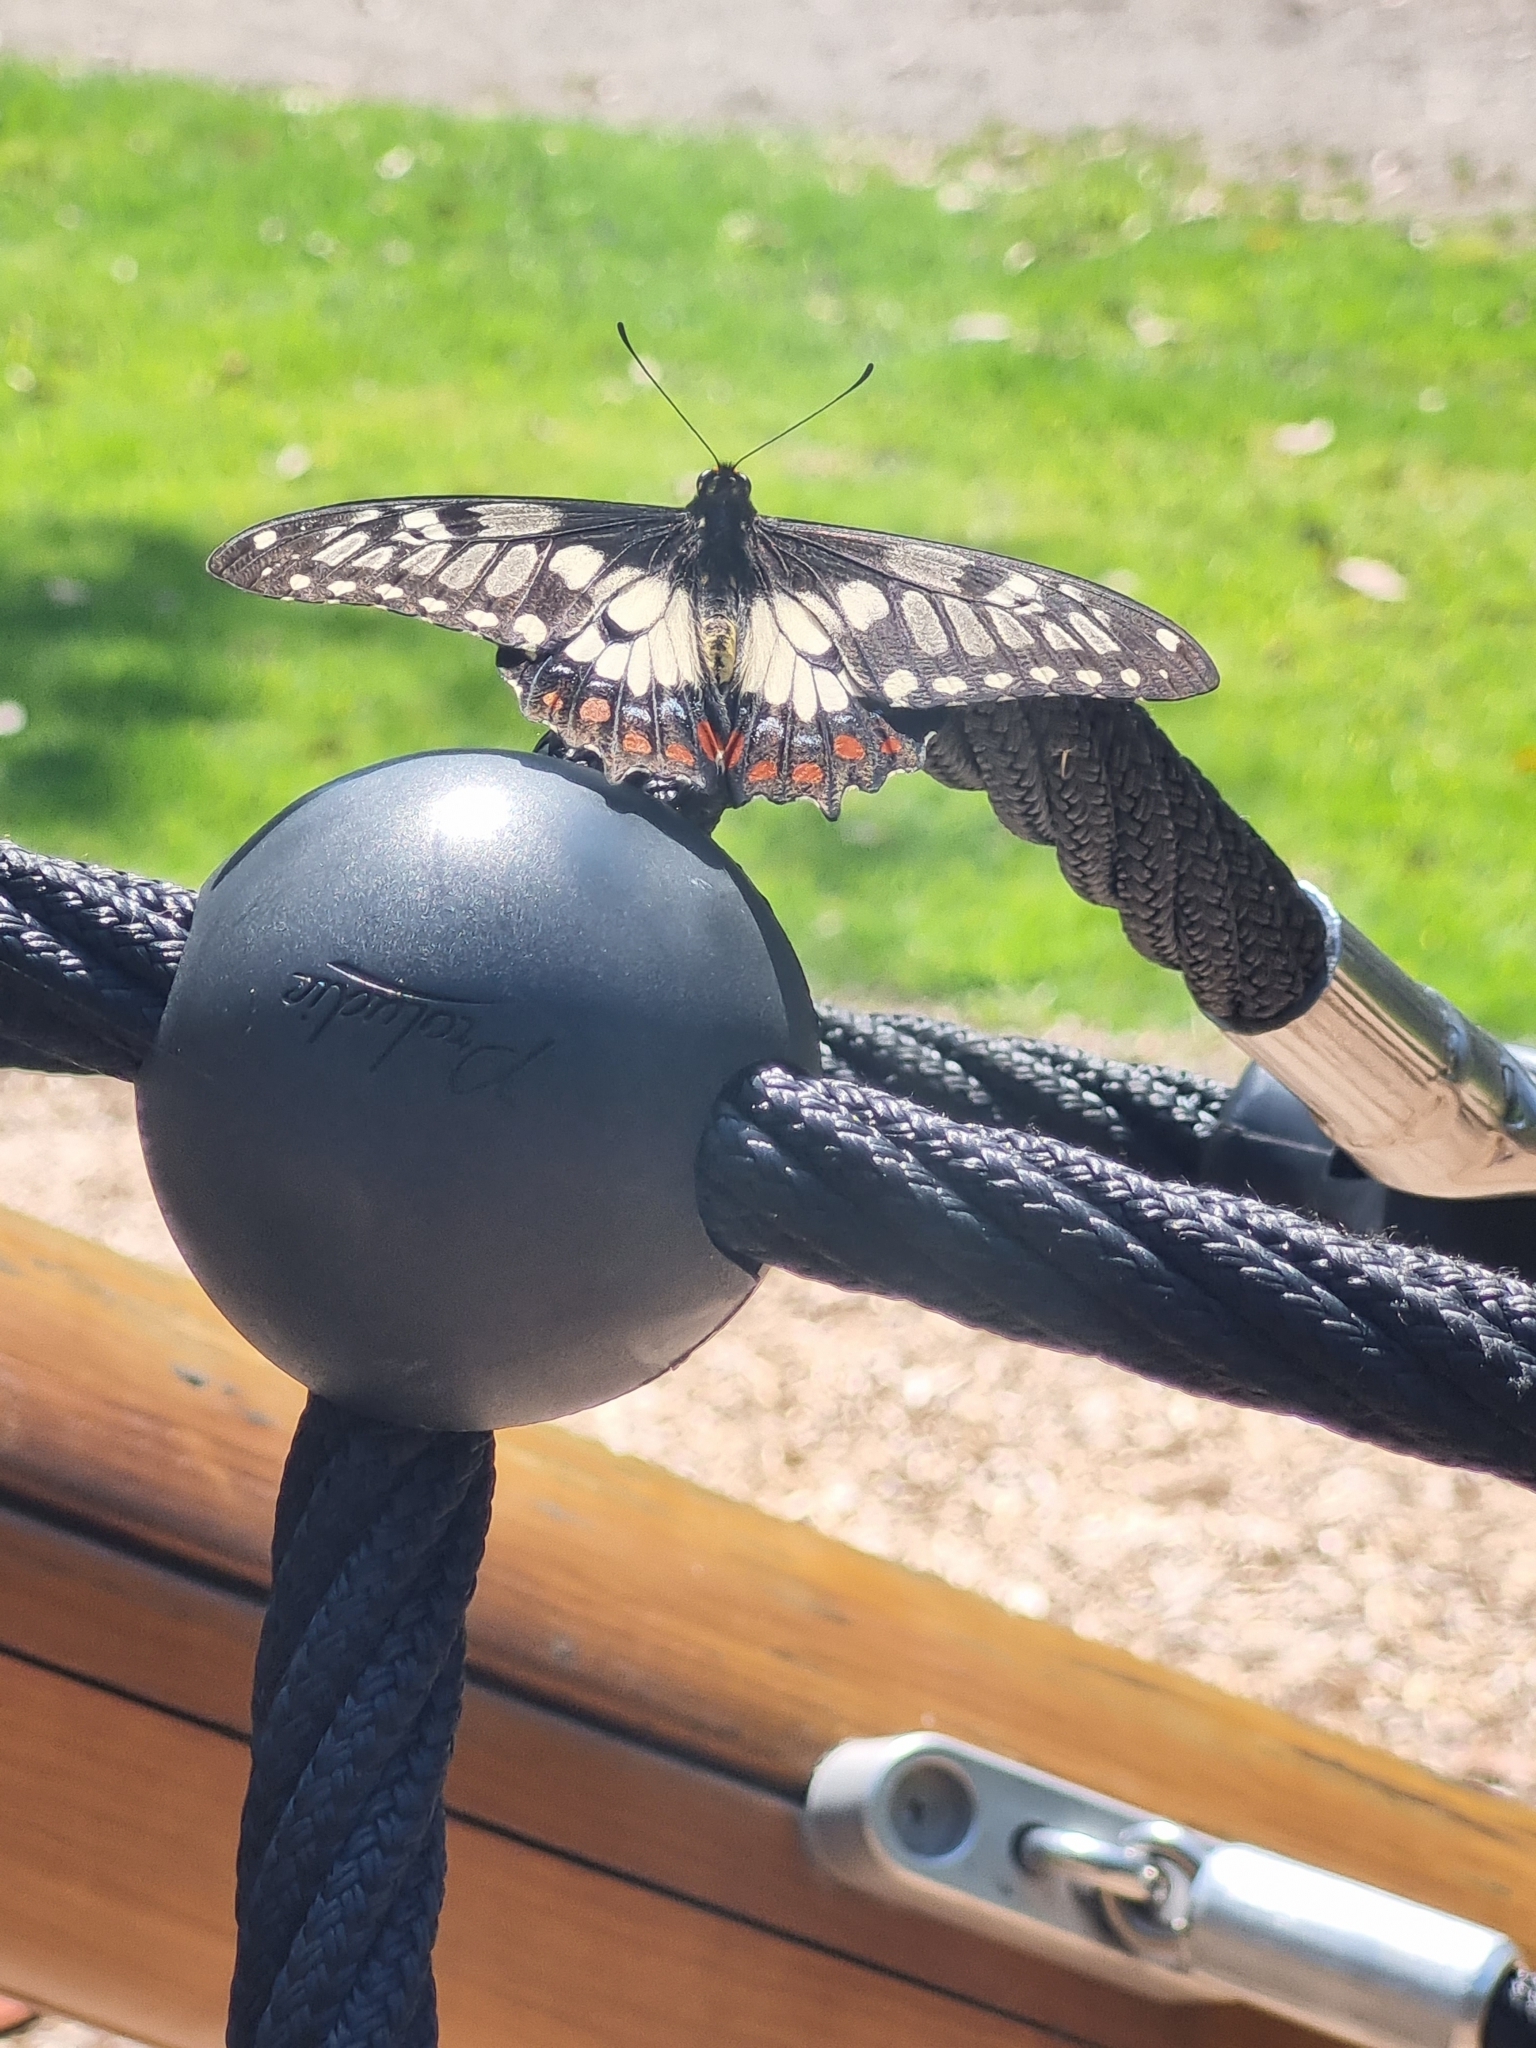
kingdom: Animalia
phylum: Arthropoda
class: Insecta
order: Lepidoptera
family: Papilionidae
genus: Papilio
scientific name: Papilio anactus
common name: Dingy swallowtail
